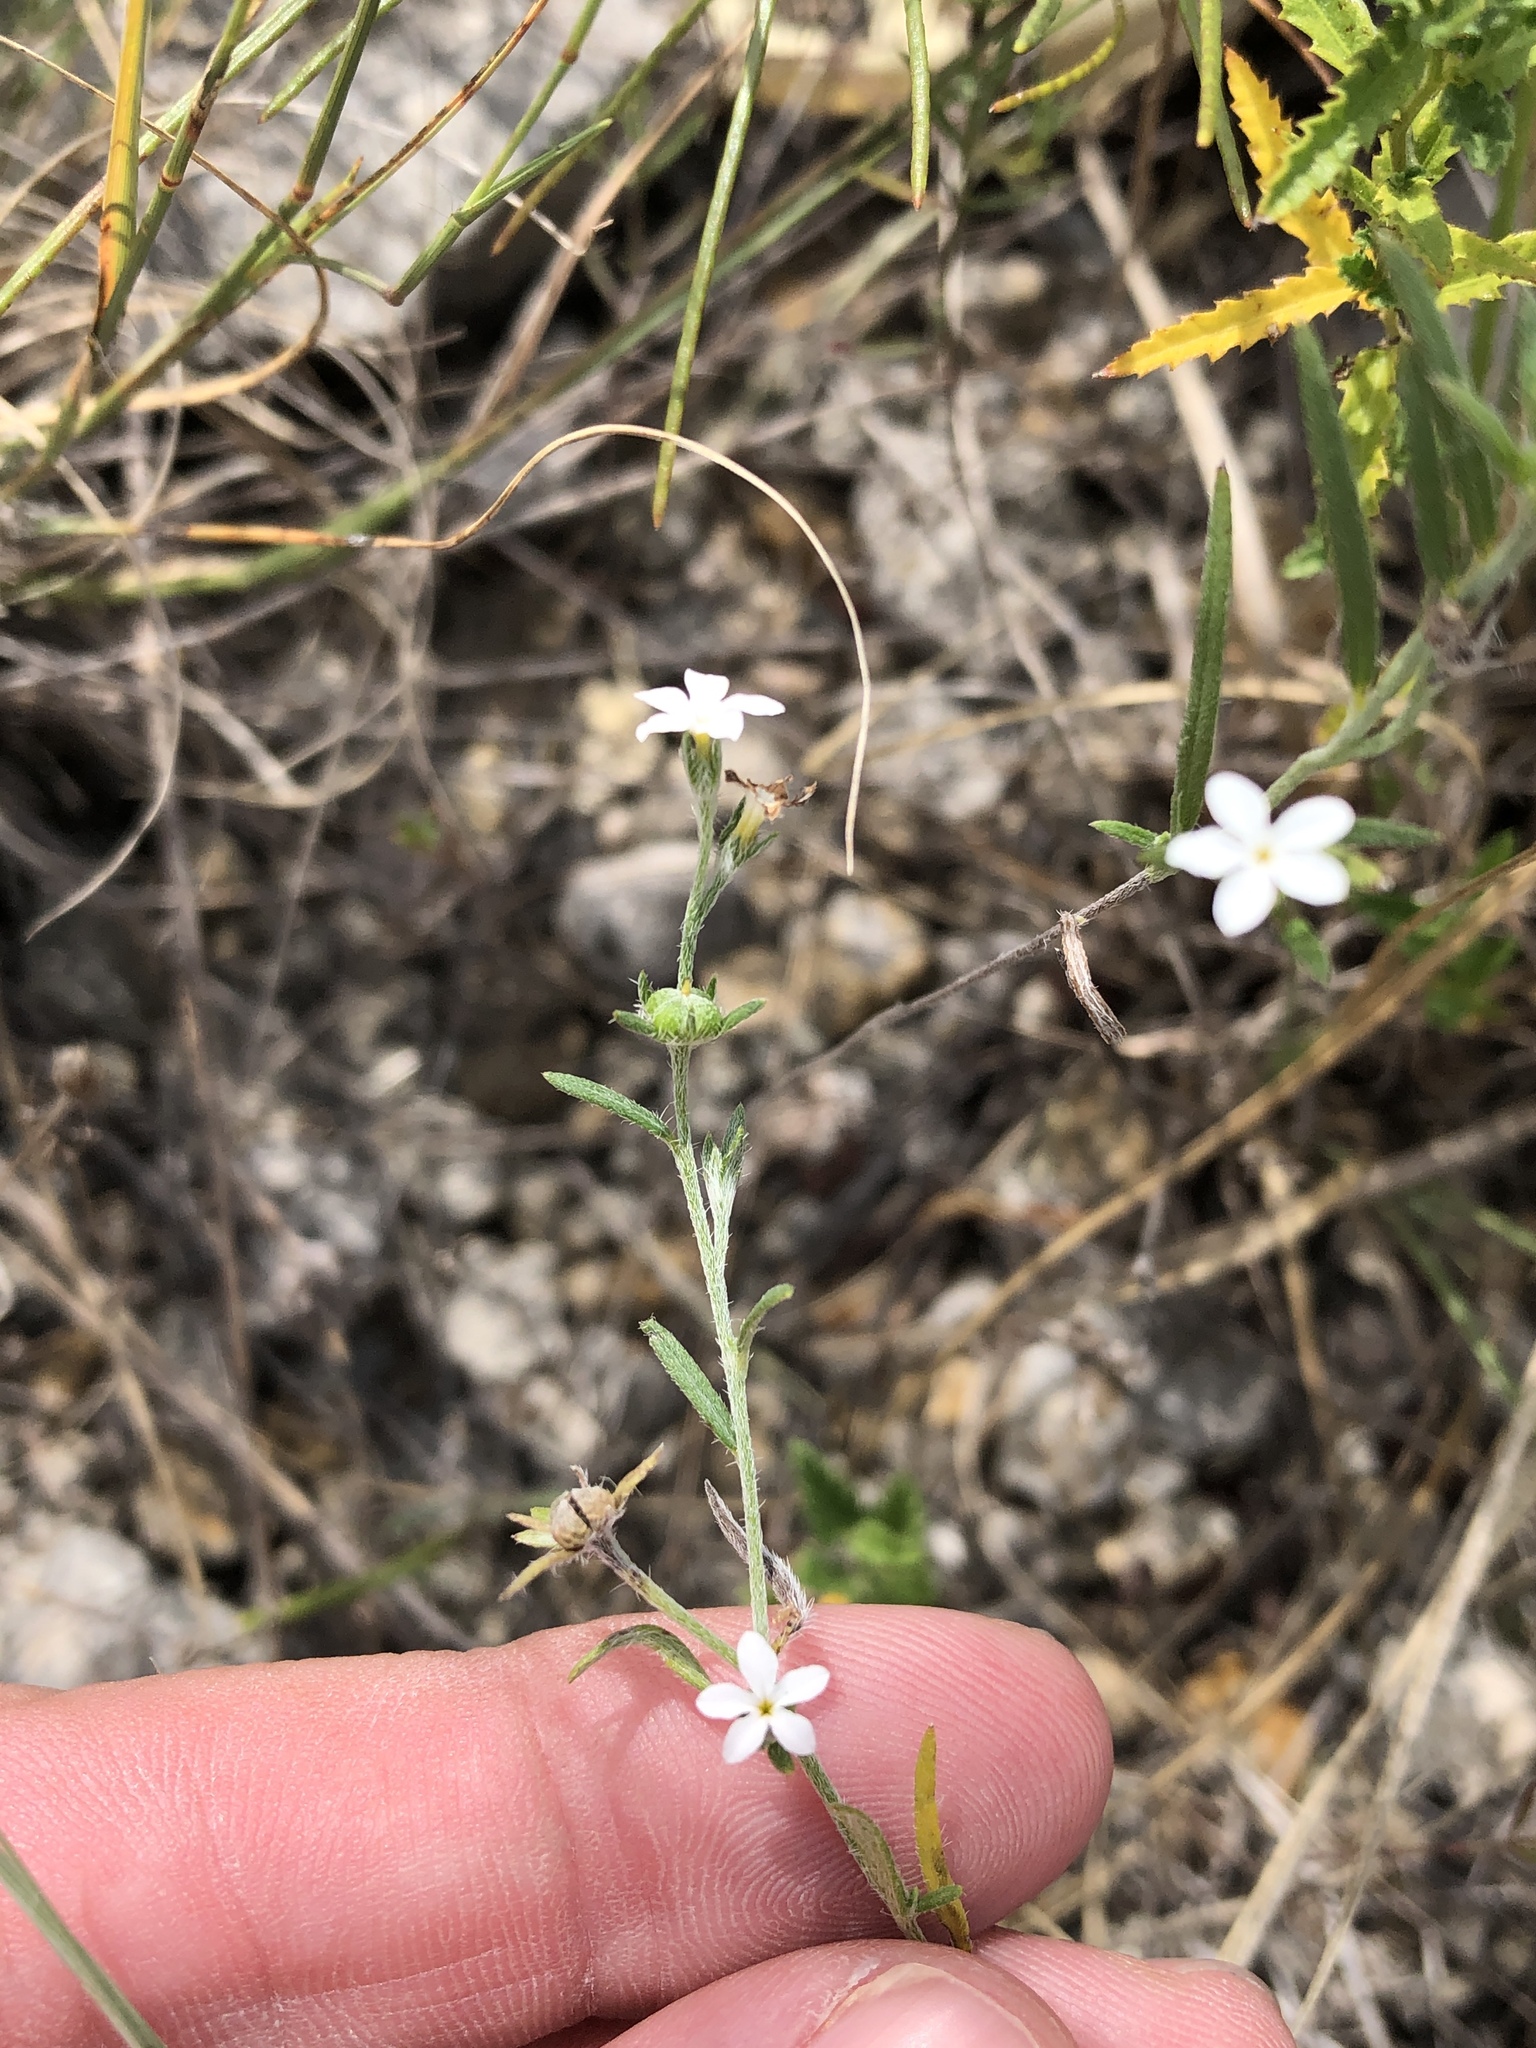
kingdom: Plantae
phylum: Tracheophyta
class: Magnoliopsida
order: Boraginales
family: Heliotropiaceae
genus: Euploca
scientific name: Euploca tenella
